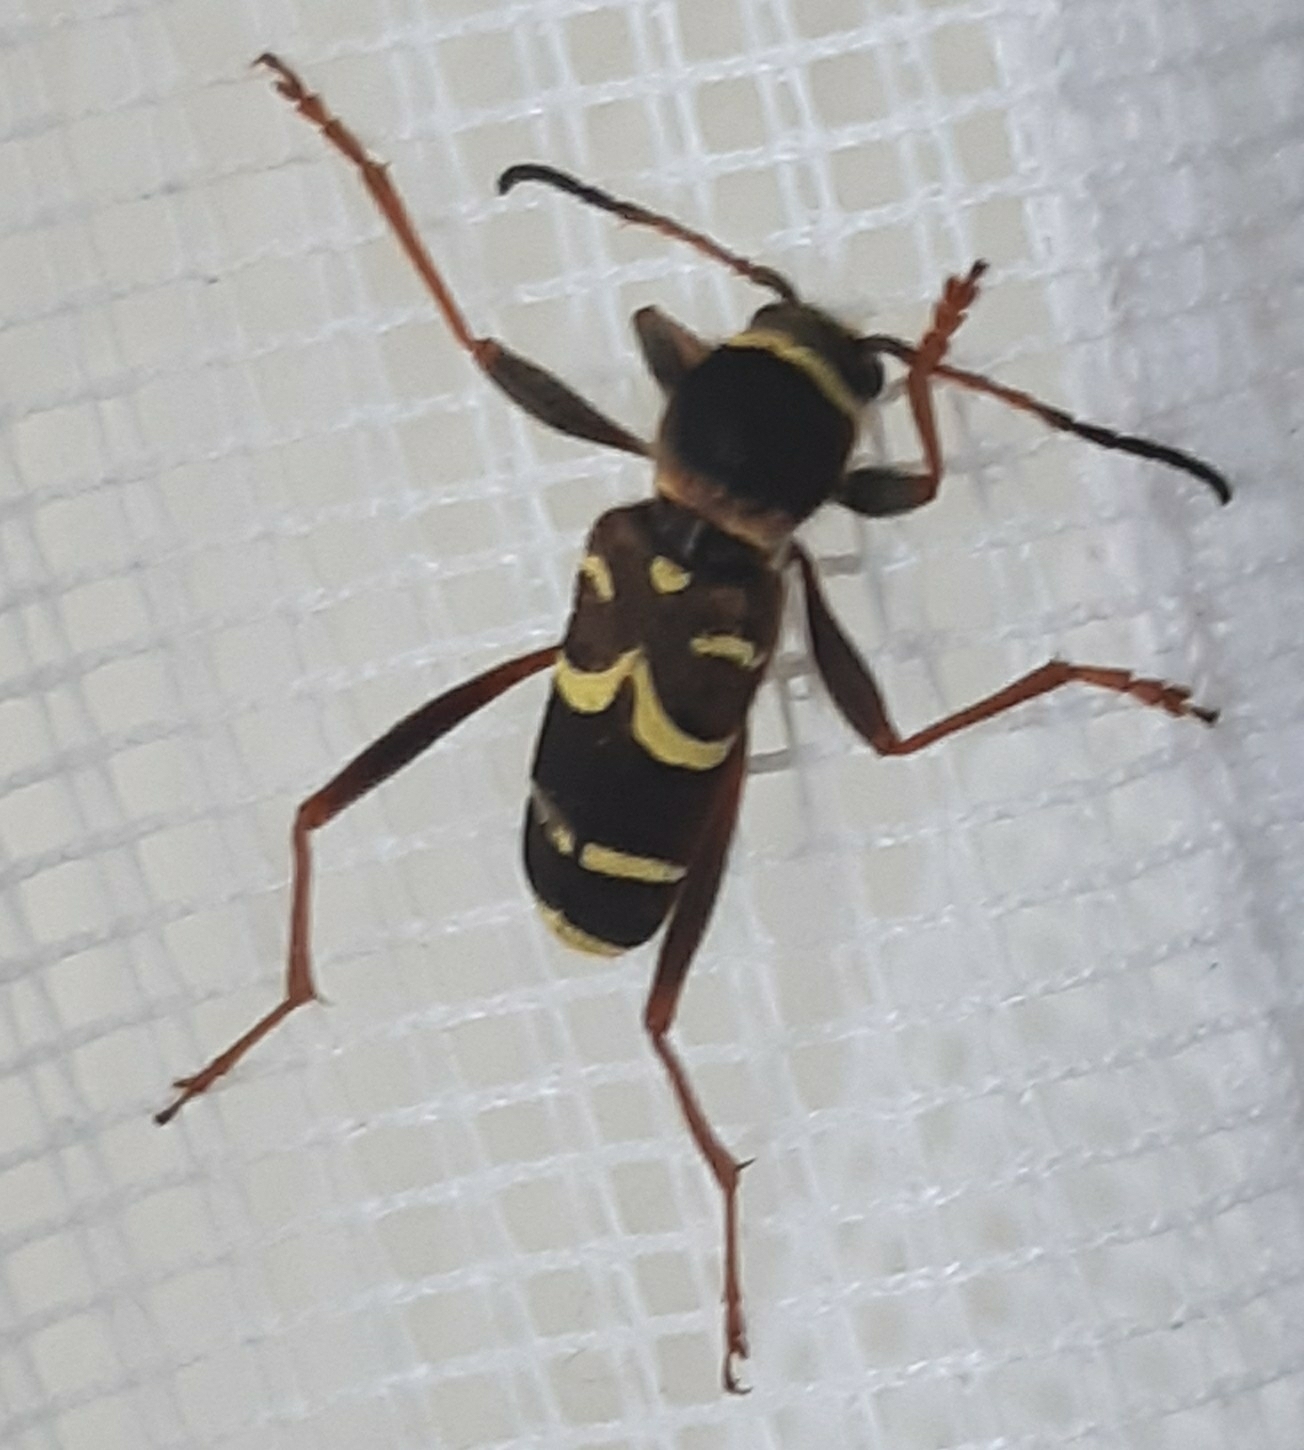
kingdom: Animalia
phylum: Arthropoda
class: Insecta
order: Coleoptera
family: Cerambycidae
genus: Clytus
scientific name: Clytus arietis
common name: Wasp beetle
